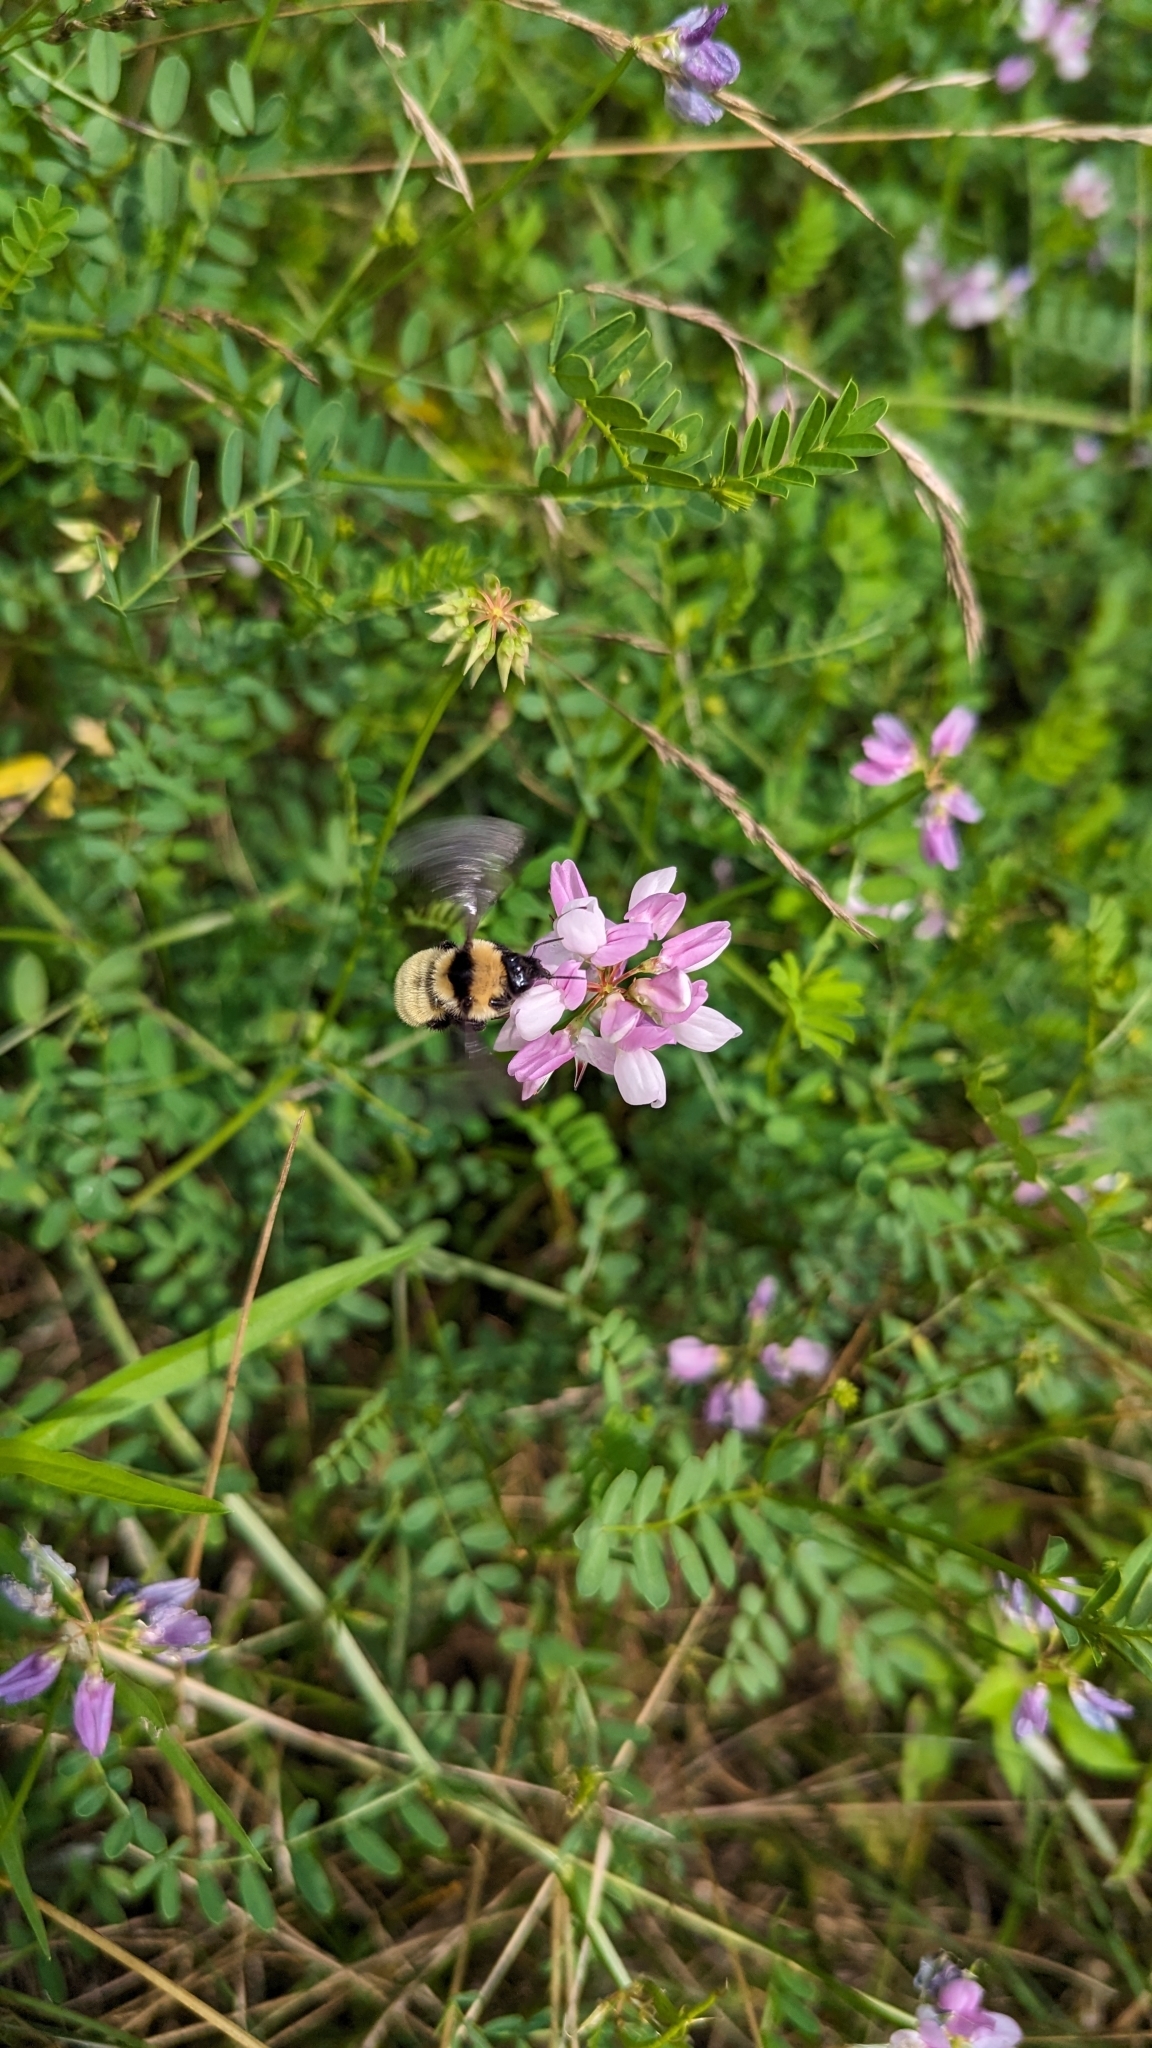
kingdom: Animalia
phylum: Arthropoda
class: Insecta
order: Hymenoptera
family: Apidae
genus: Bombus
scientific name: Bombus fervidus
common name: Yellow bumble bee
